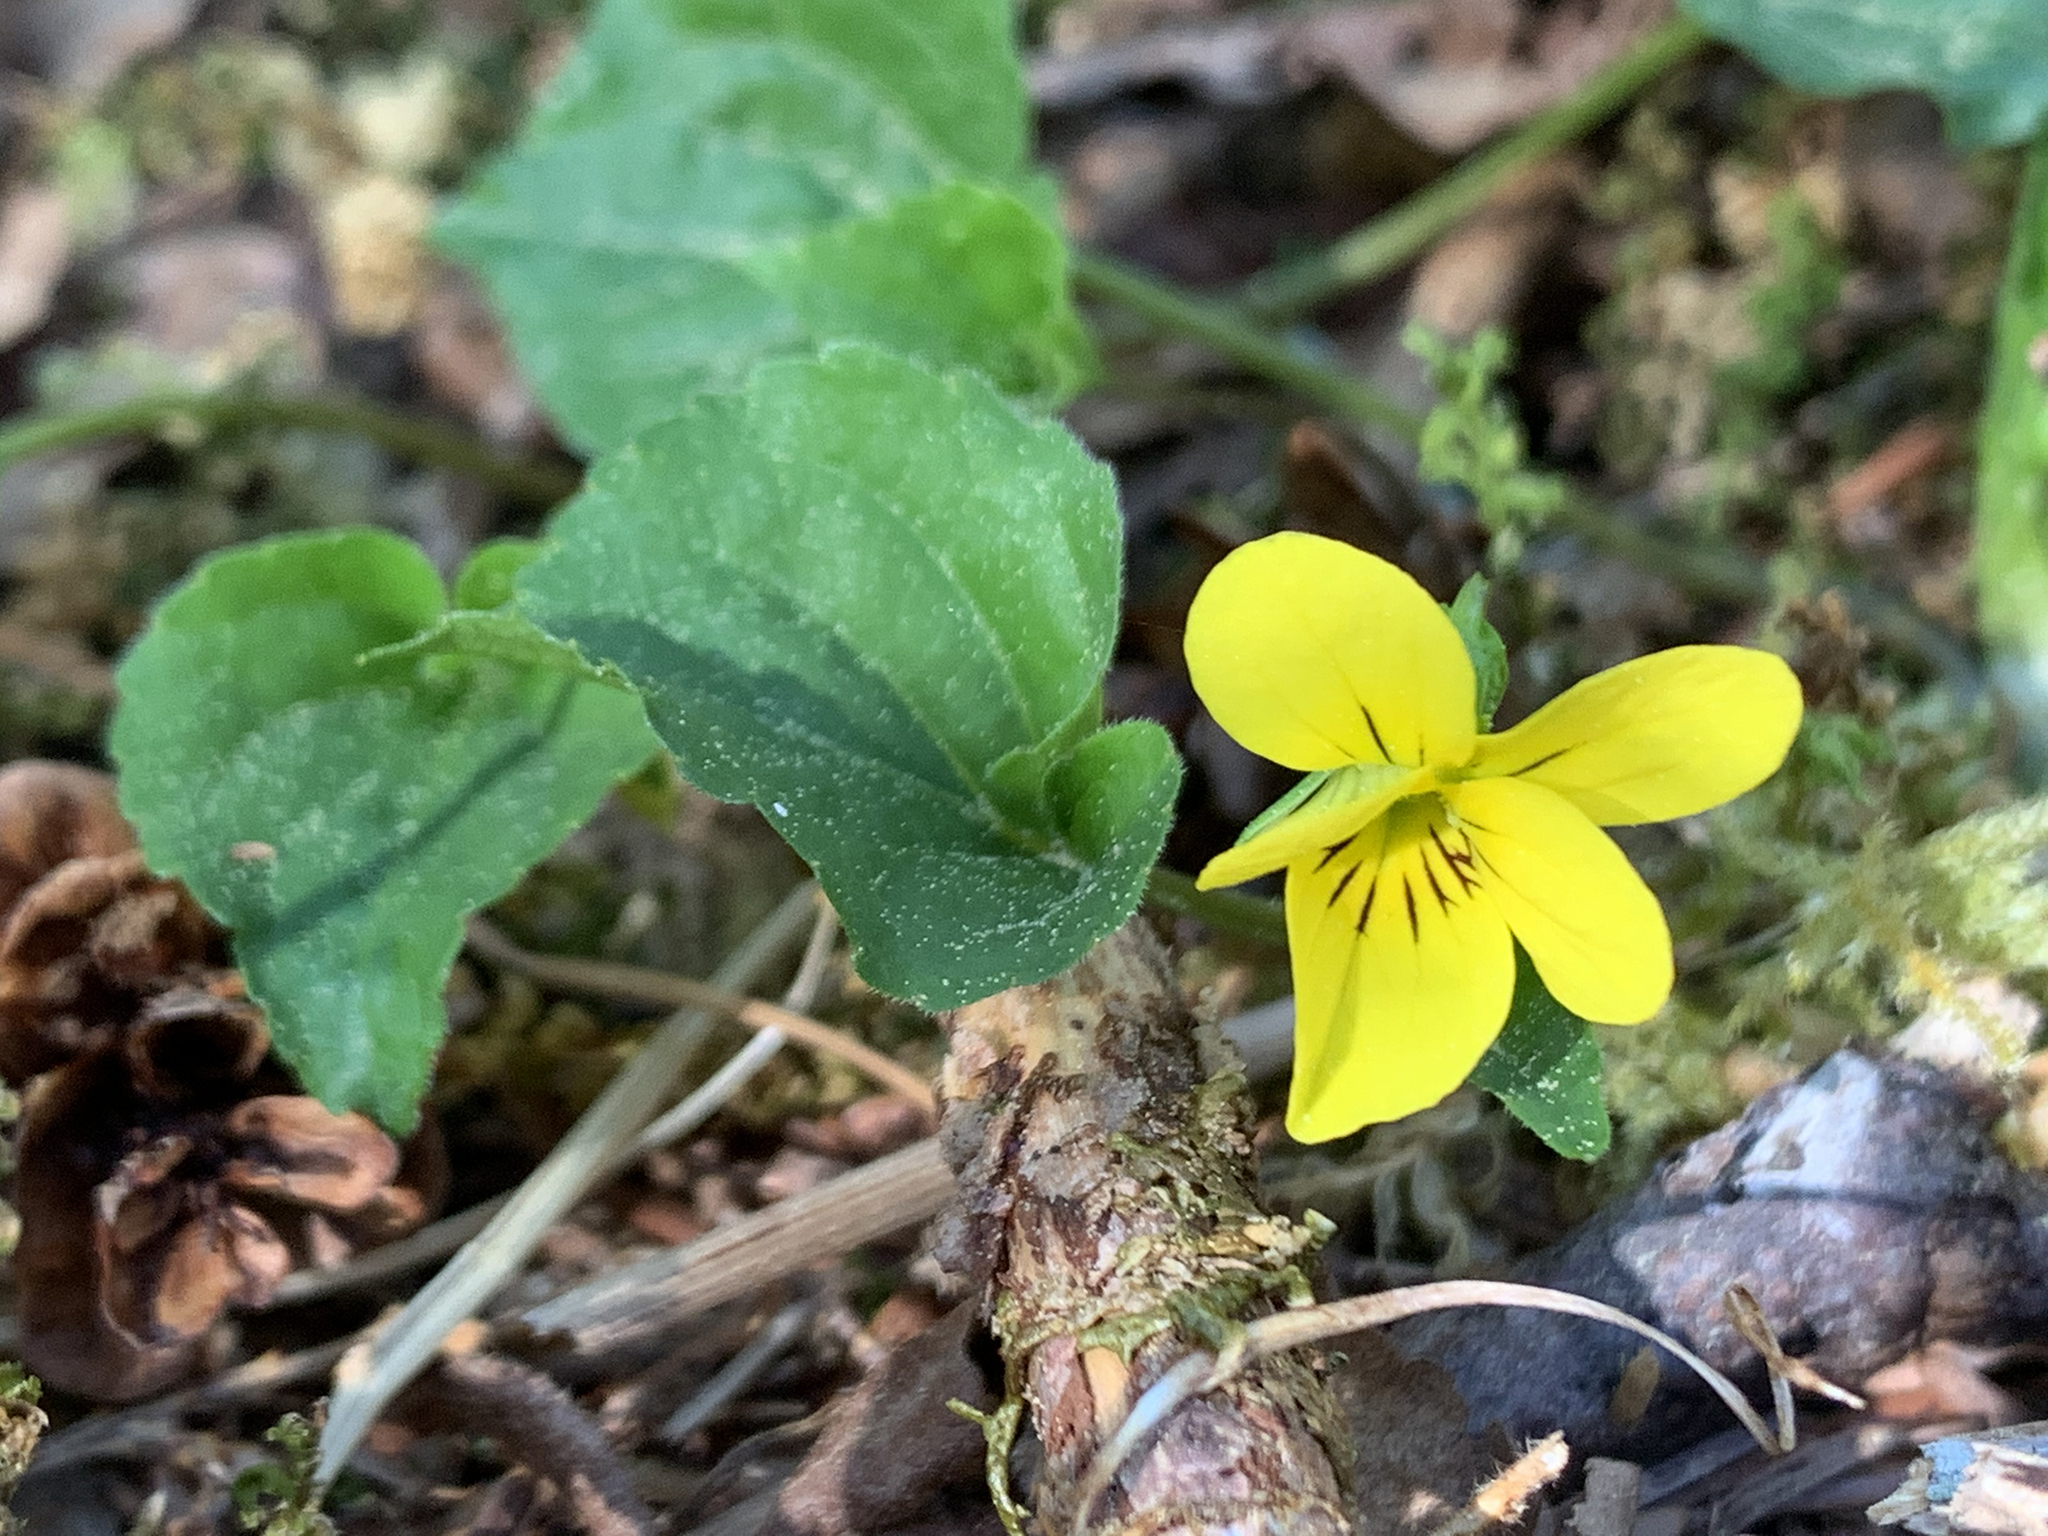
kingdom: Plantae
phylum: Tracheophyta
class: Magnoliopsida
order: Malpighiales
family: Violaceae
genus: Viola
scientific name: Viola glabella
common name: Stream violet
